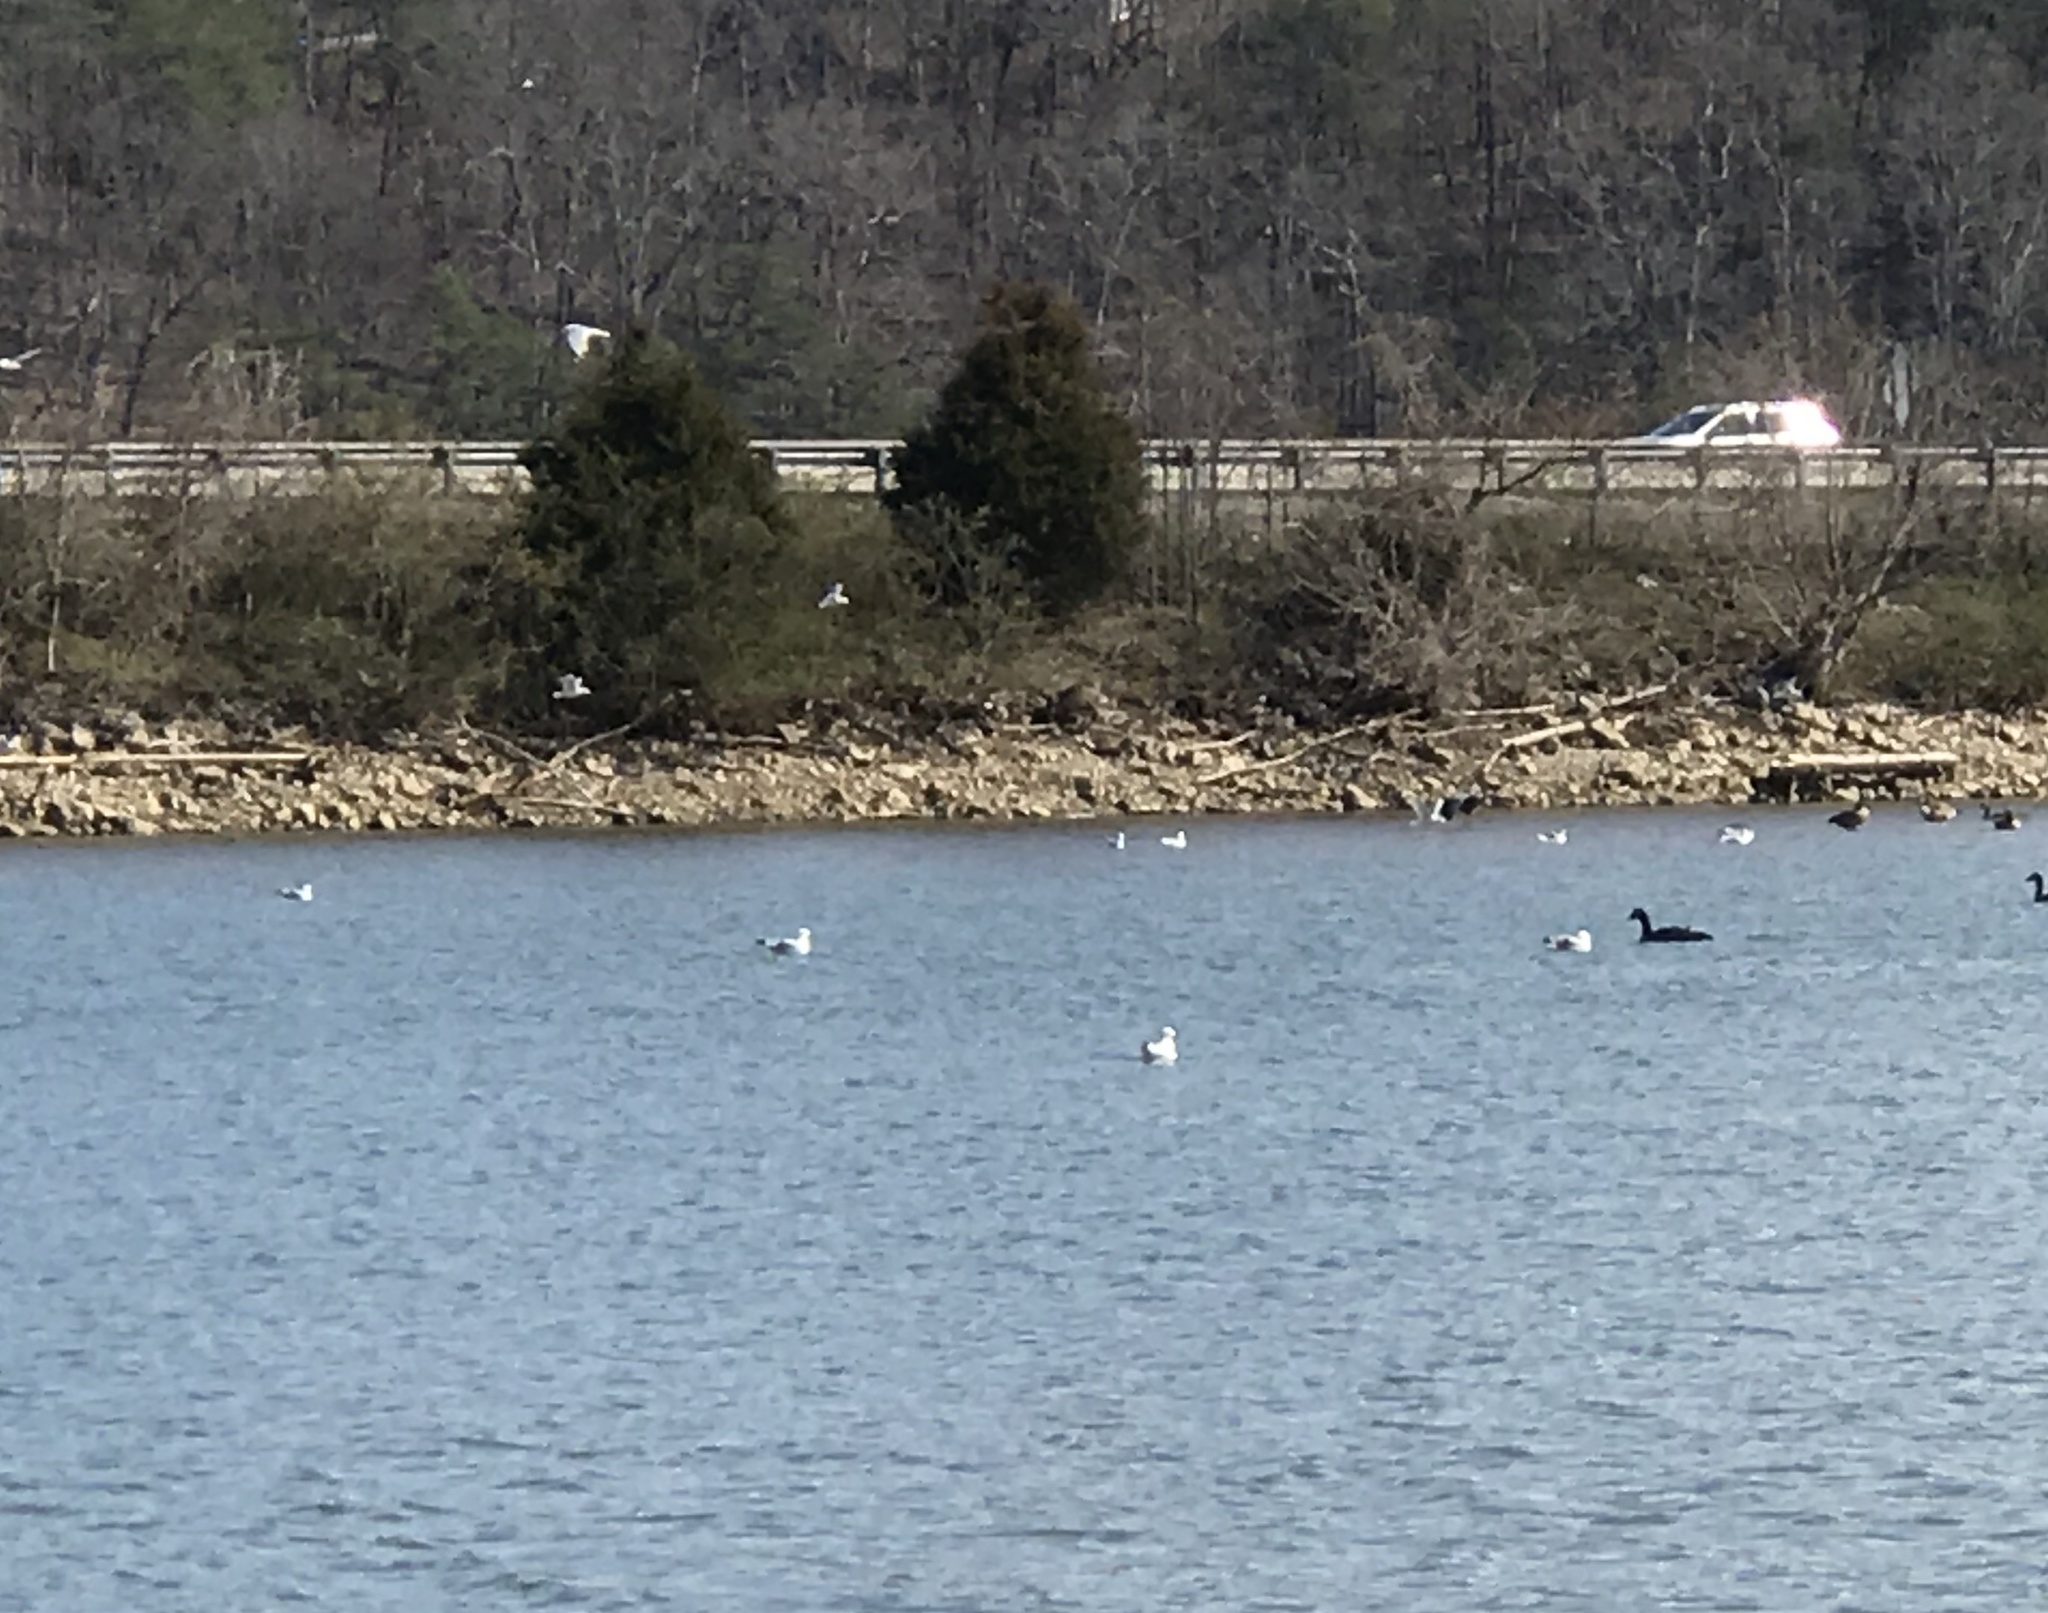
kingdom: Animalia
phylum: Chordata
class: Aves
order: Charadriiformes
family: Laridae
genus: Larus
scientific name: Larus delawarensis
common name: Ring-billed gull
